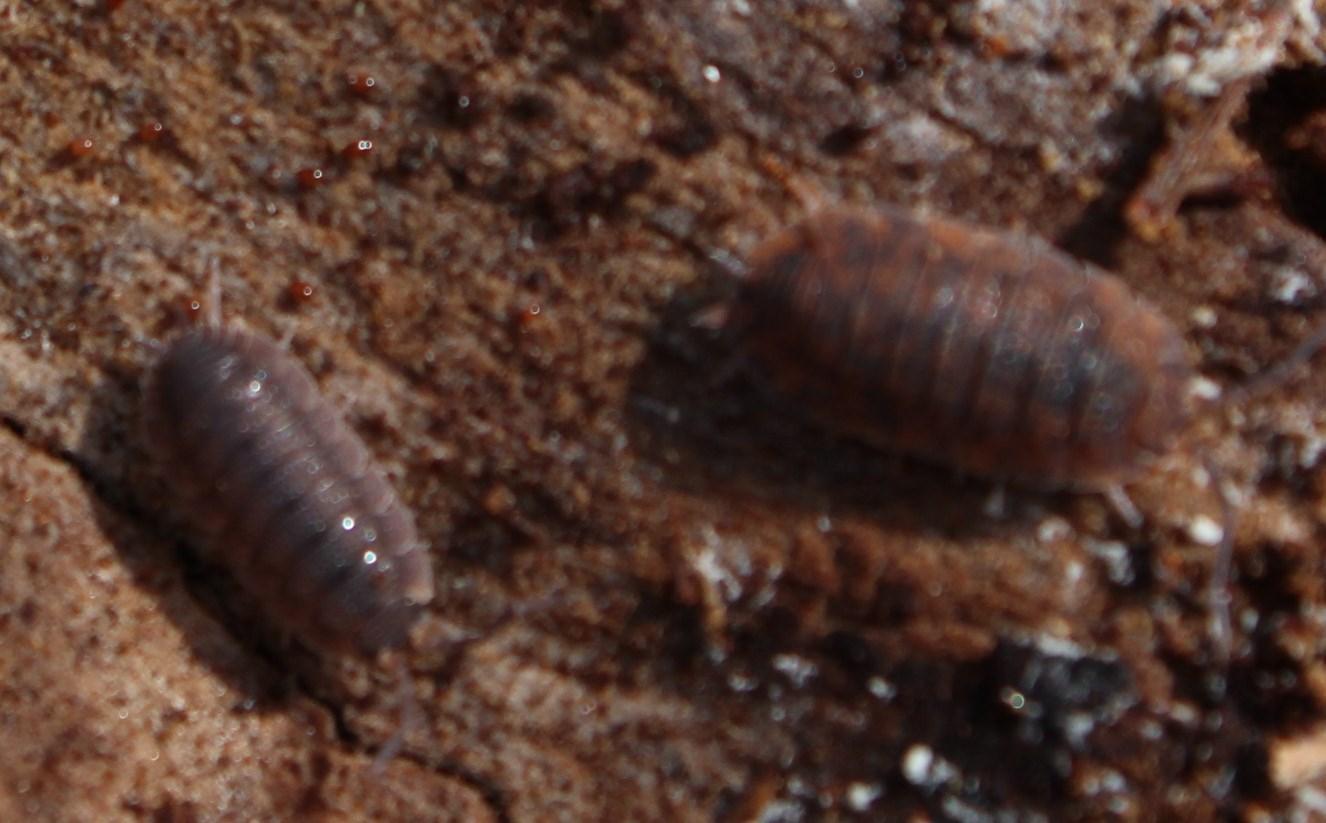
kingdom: Animalia
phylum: Arthropoda
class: Malacostraca
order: Isopoda
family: Porcellionidae
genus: Porcellio
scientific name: Porcellio scaber
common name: Common rough woodlouse
